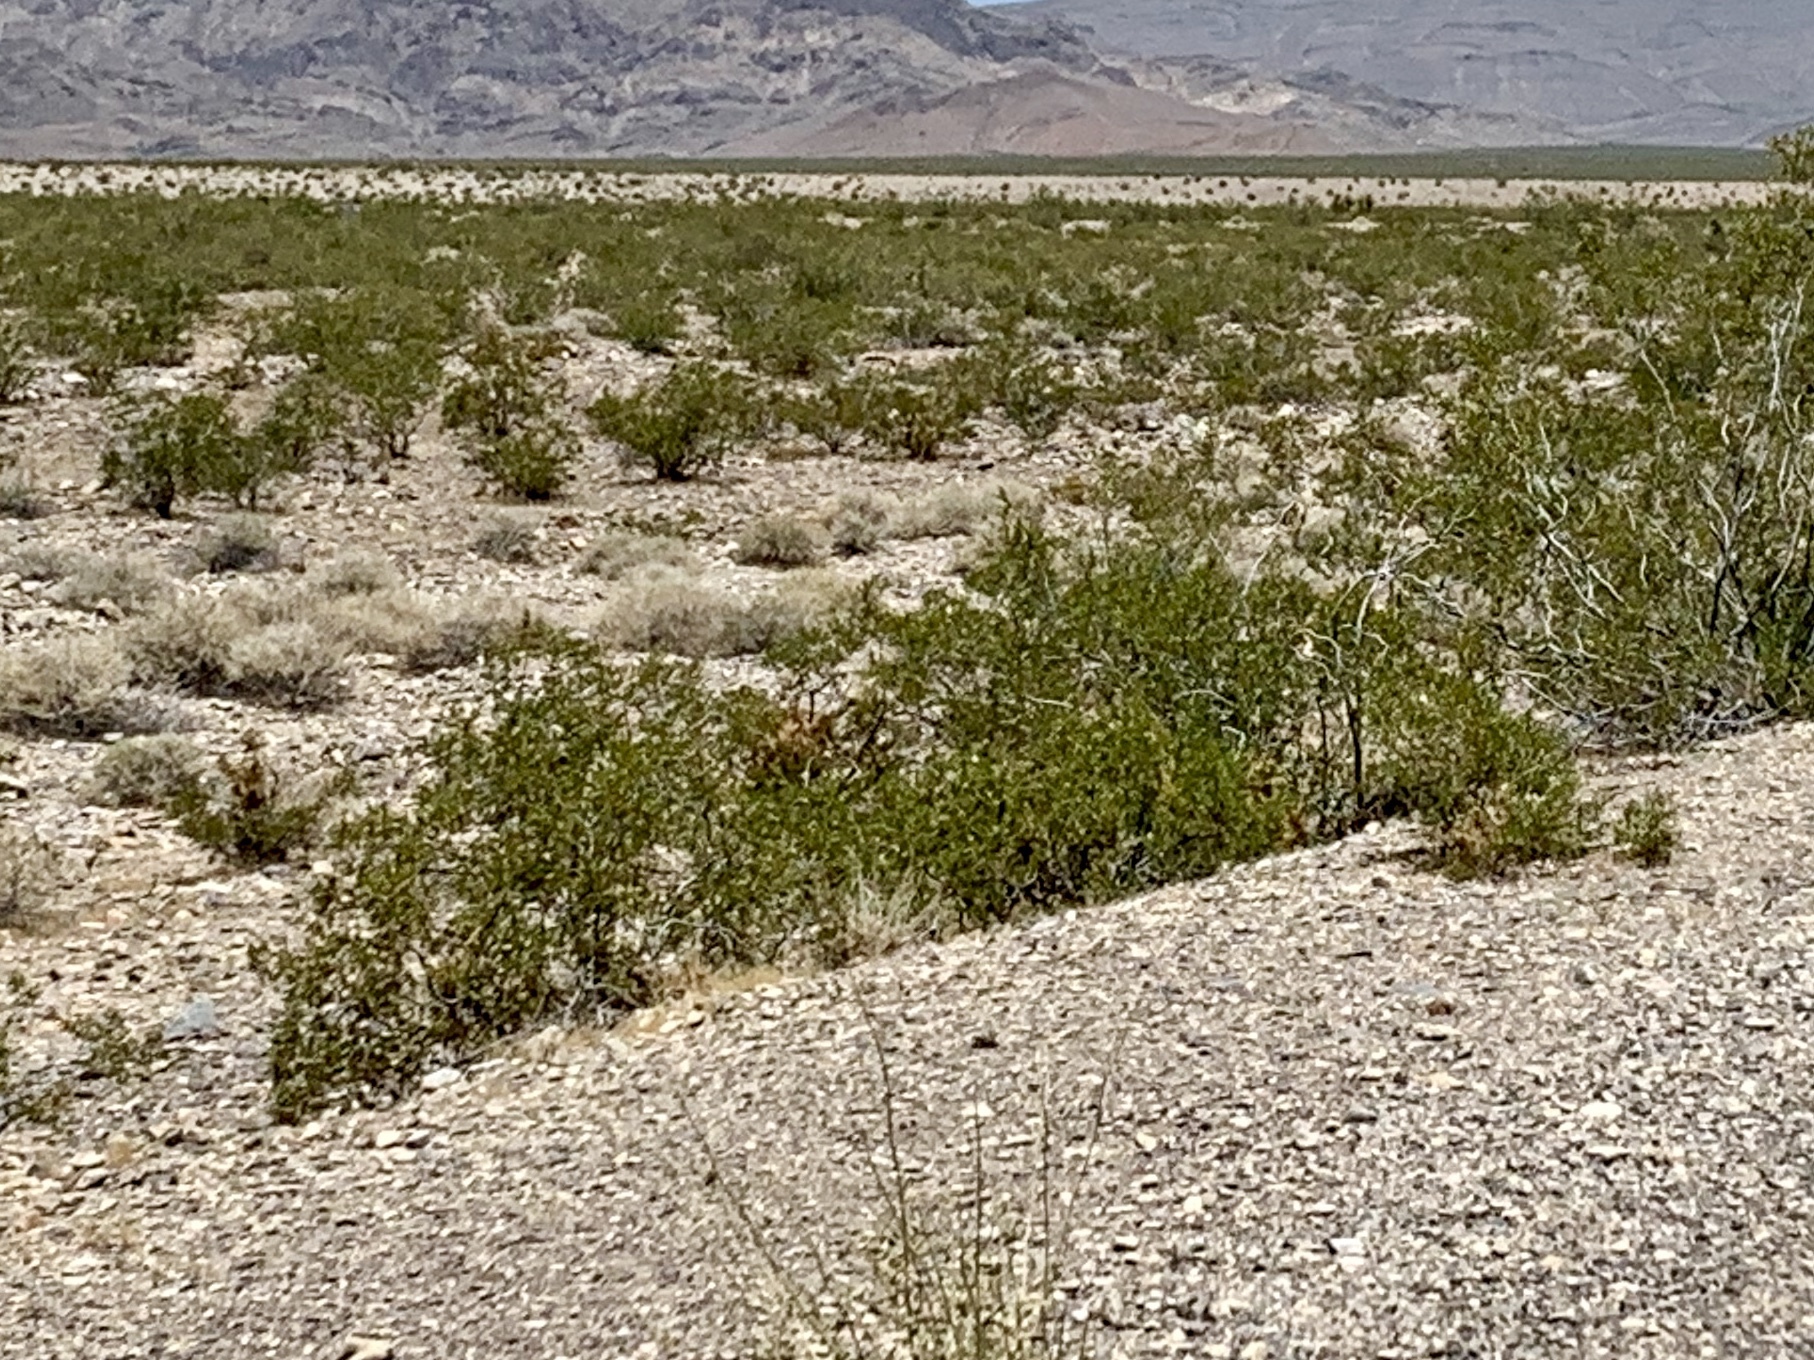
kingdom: Plantae
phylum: Tracheophyta
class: Magnoliopsida
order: Zygophyllales
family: Zygophyllaceae
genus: Larrea
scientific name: Larrea tridentata
